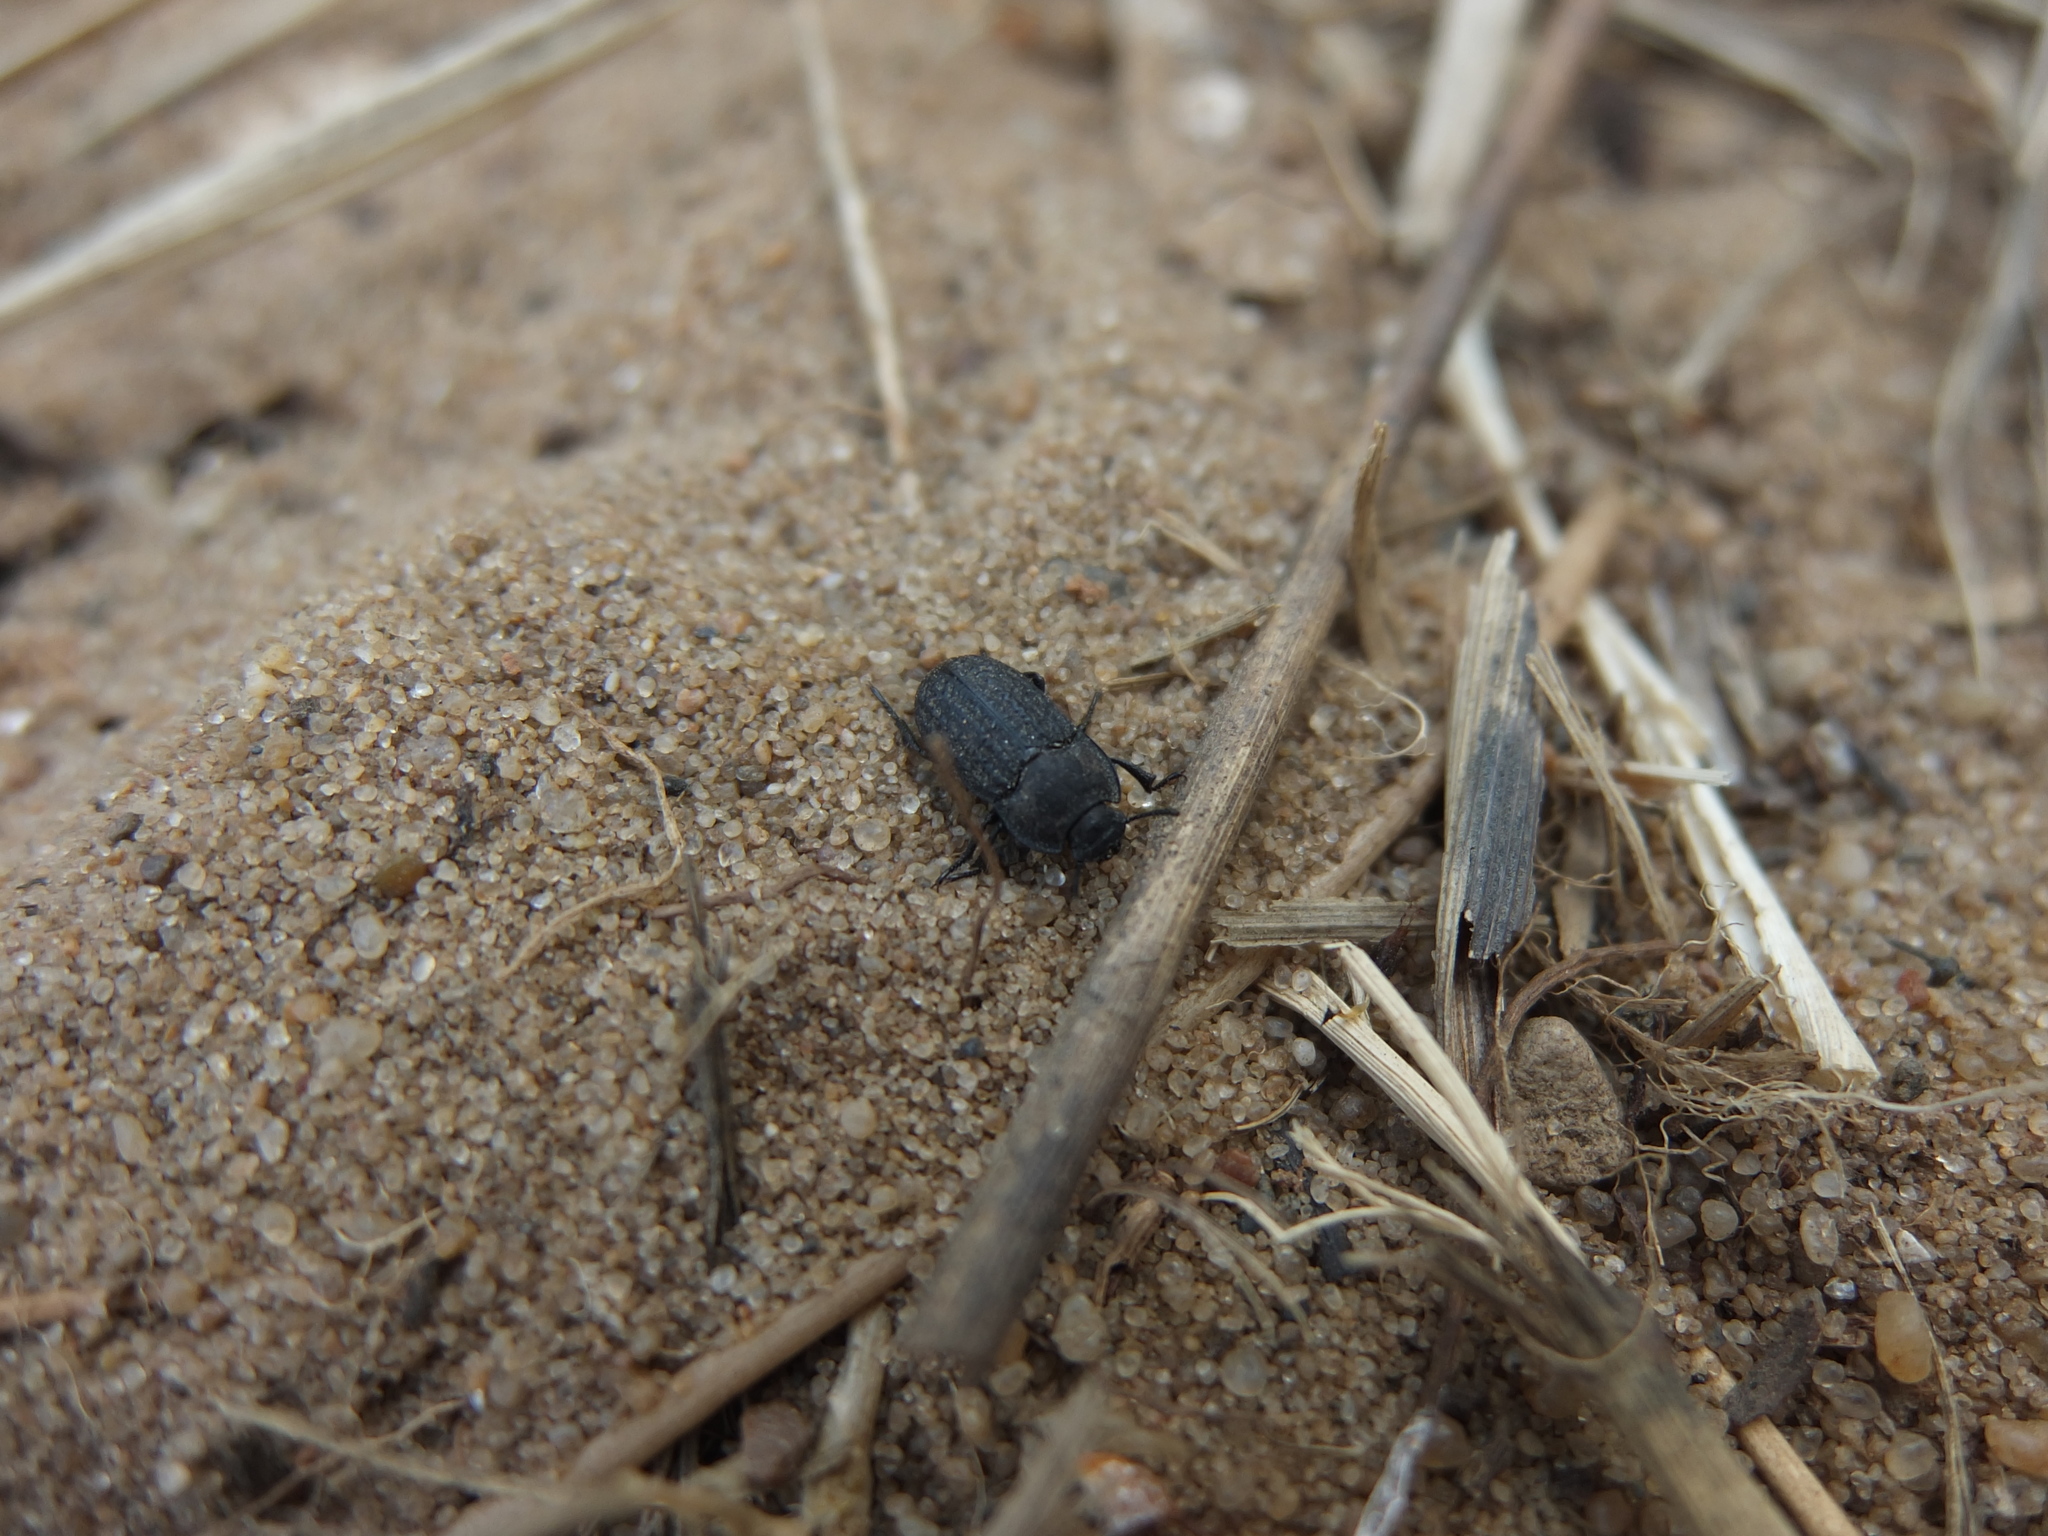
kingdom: Animalia
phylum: Arthropoda
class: Insecta
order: Coleoptera
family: Tenebrionidae
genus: Opatrum
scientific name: Opatrum sabulosum
